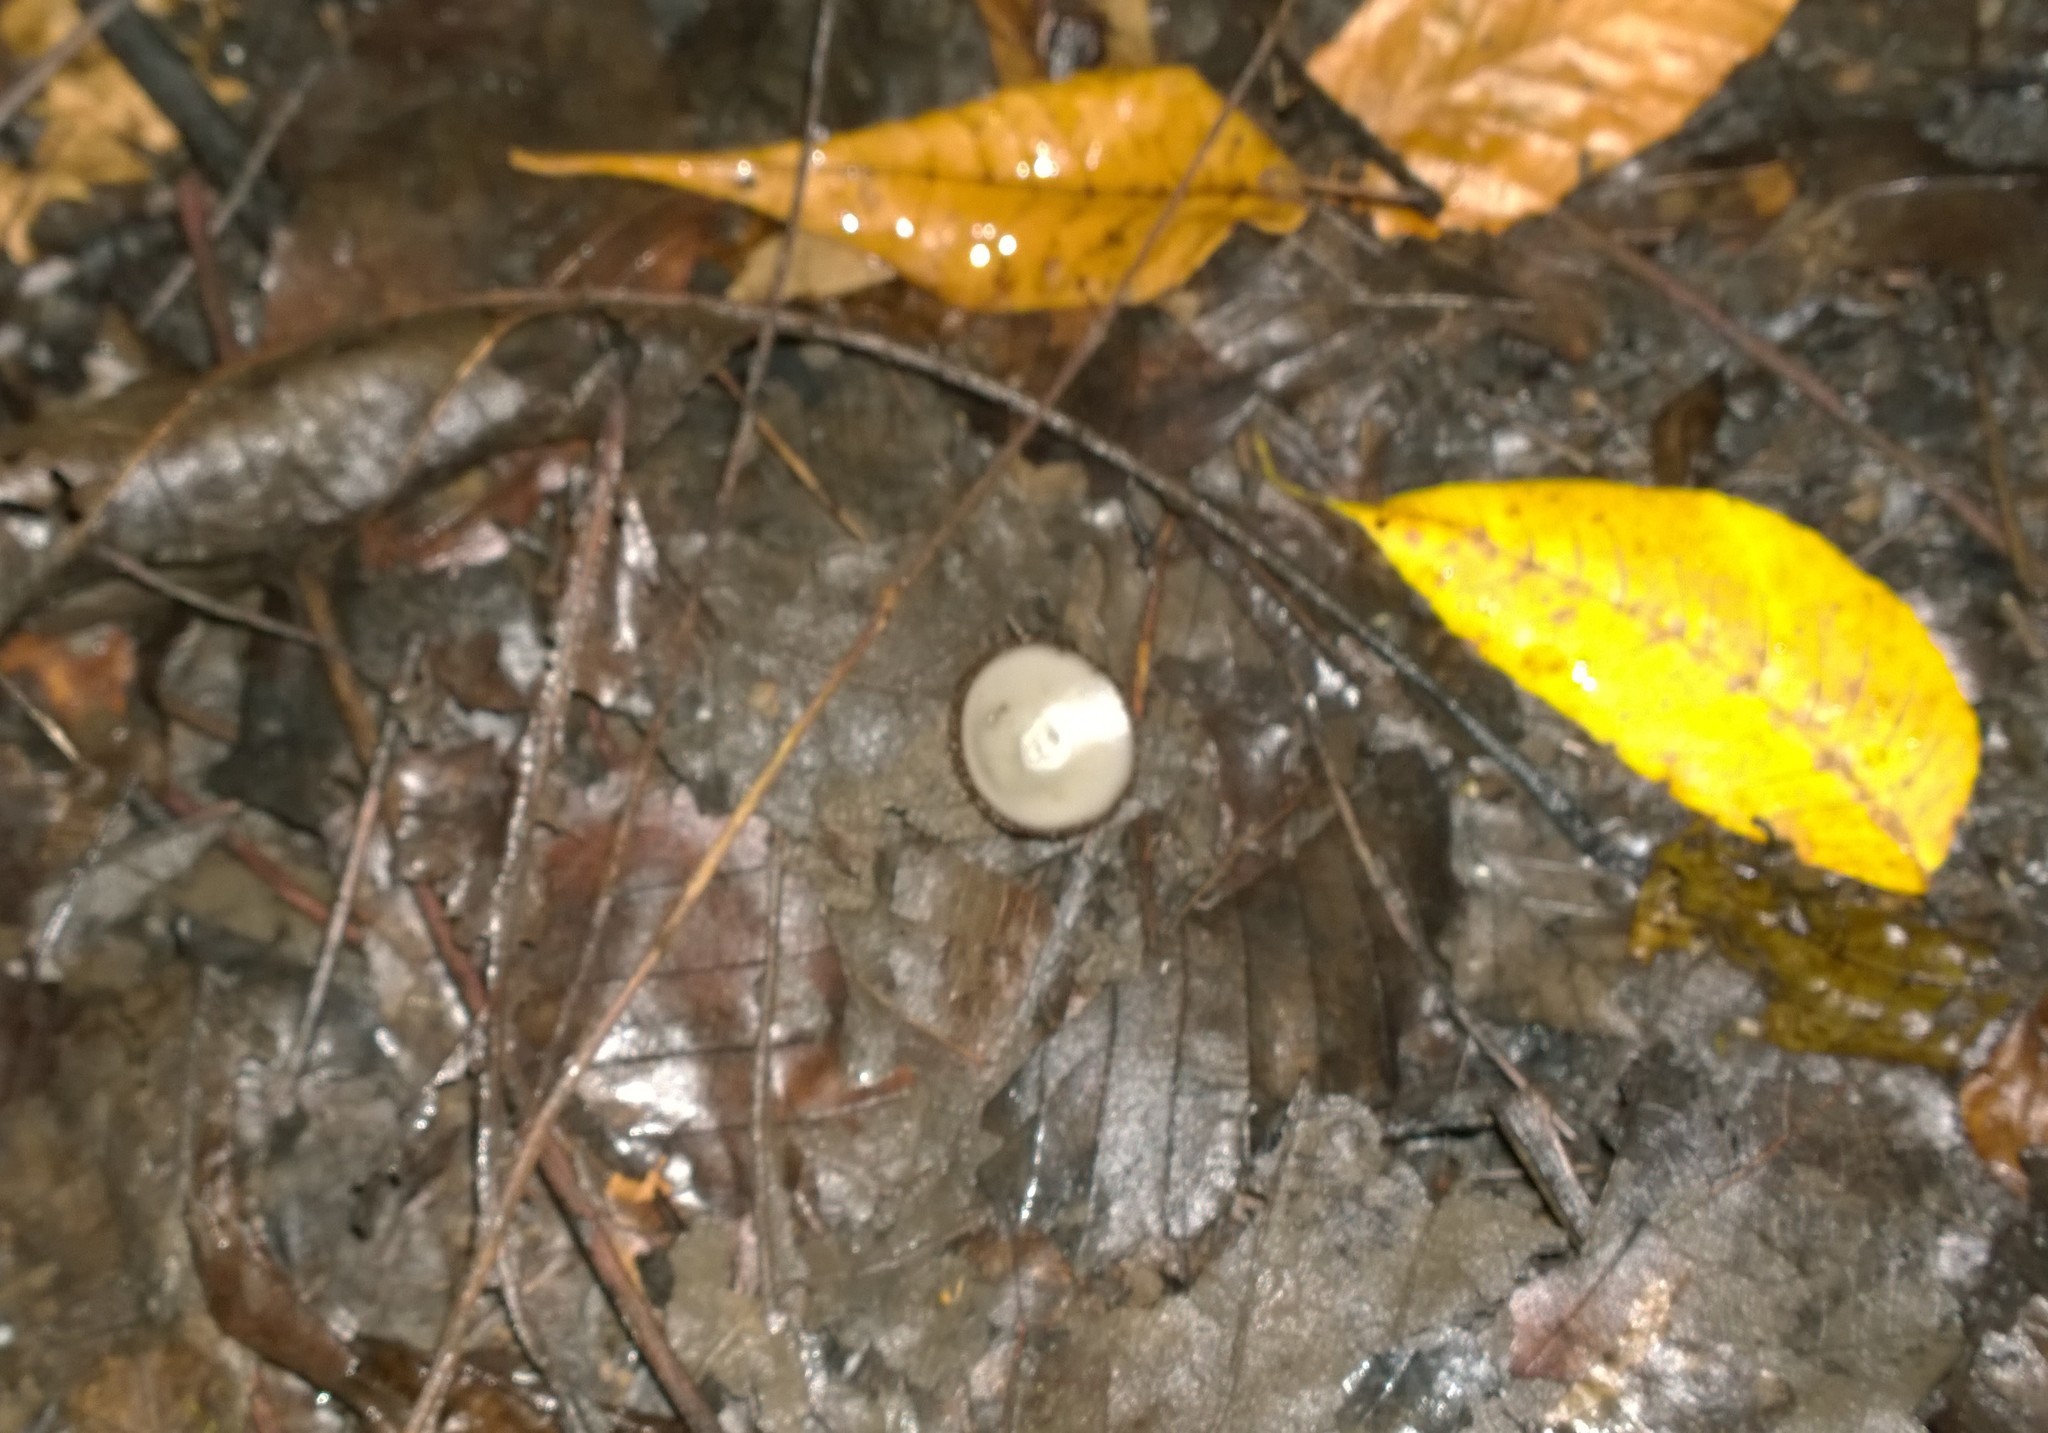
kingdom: Fungi
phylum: Ascomycota
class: Pezizomycetes
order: Pezizales
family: Pyronemataceae
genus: Humaria
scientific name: Humaria hemisphaerica
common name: Glazed cup
